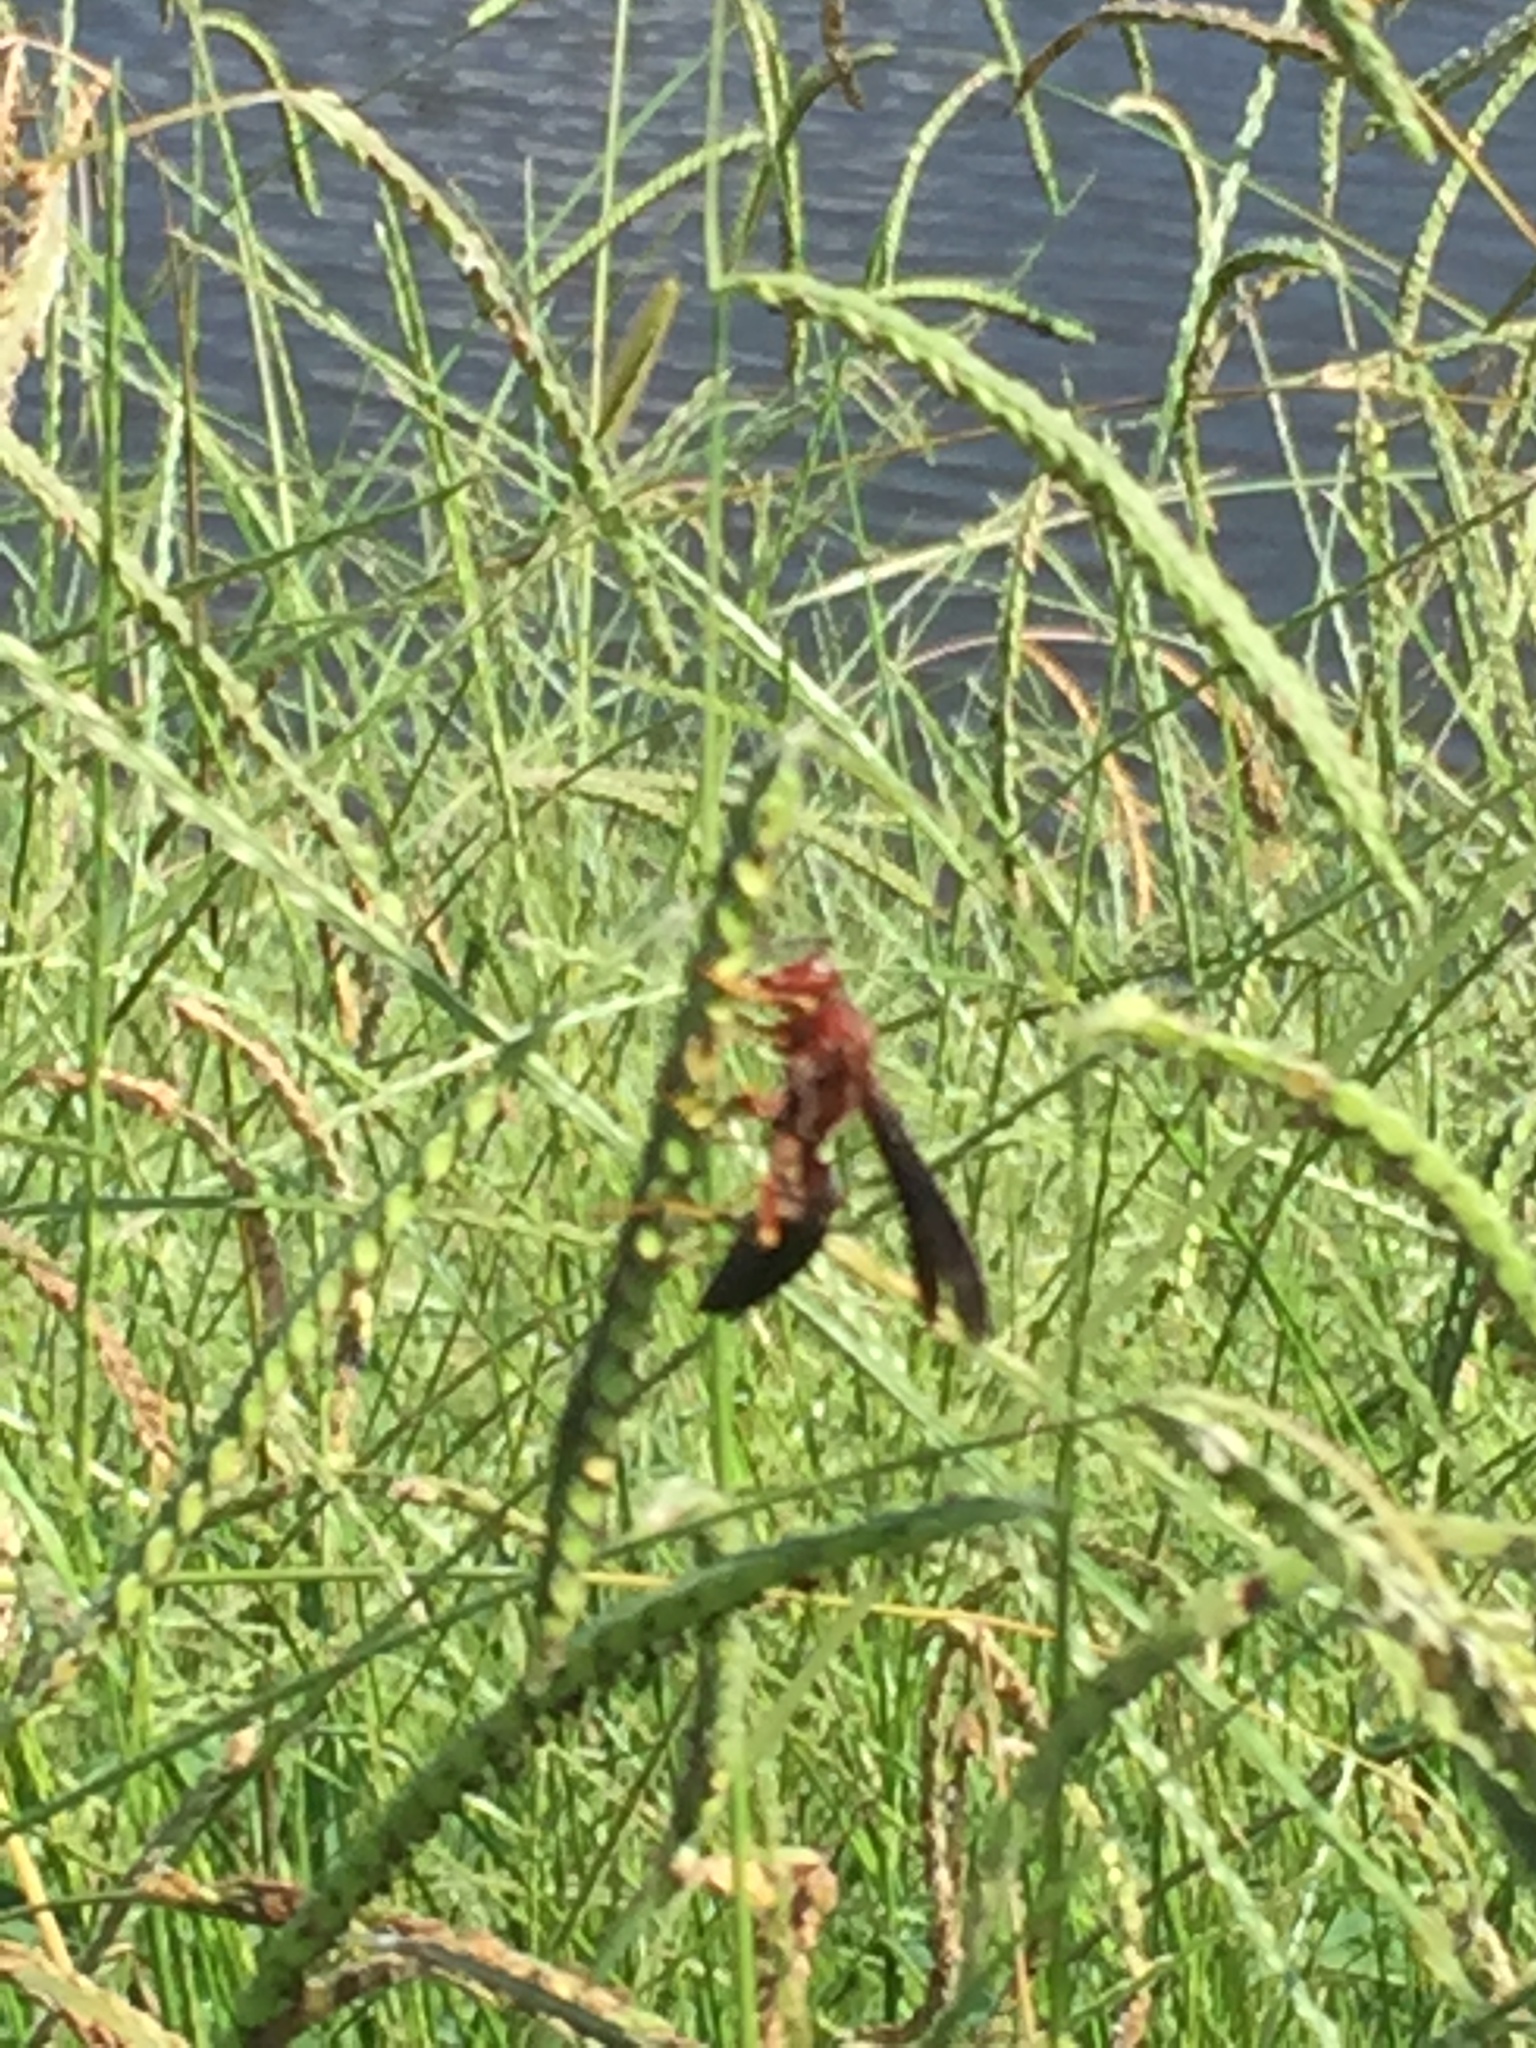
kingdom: Animalia
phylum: Arthropoda
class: Insecta
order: Hymenoptera
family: Eumenidae
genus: Polistes
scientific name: Polistes
